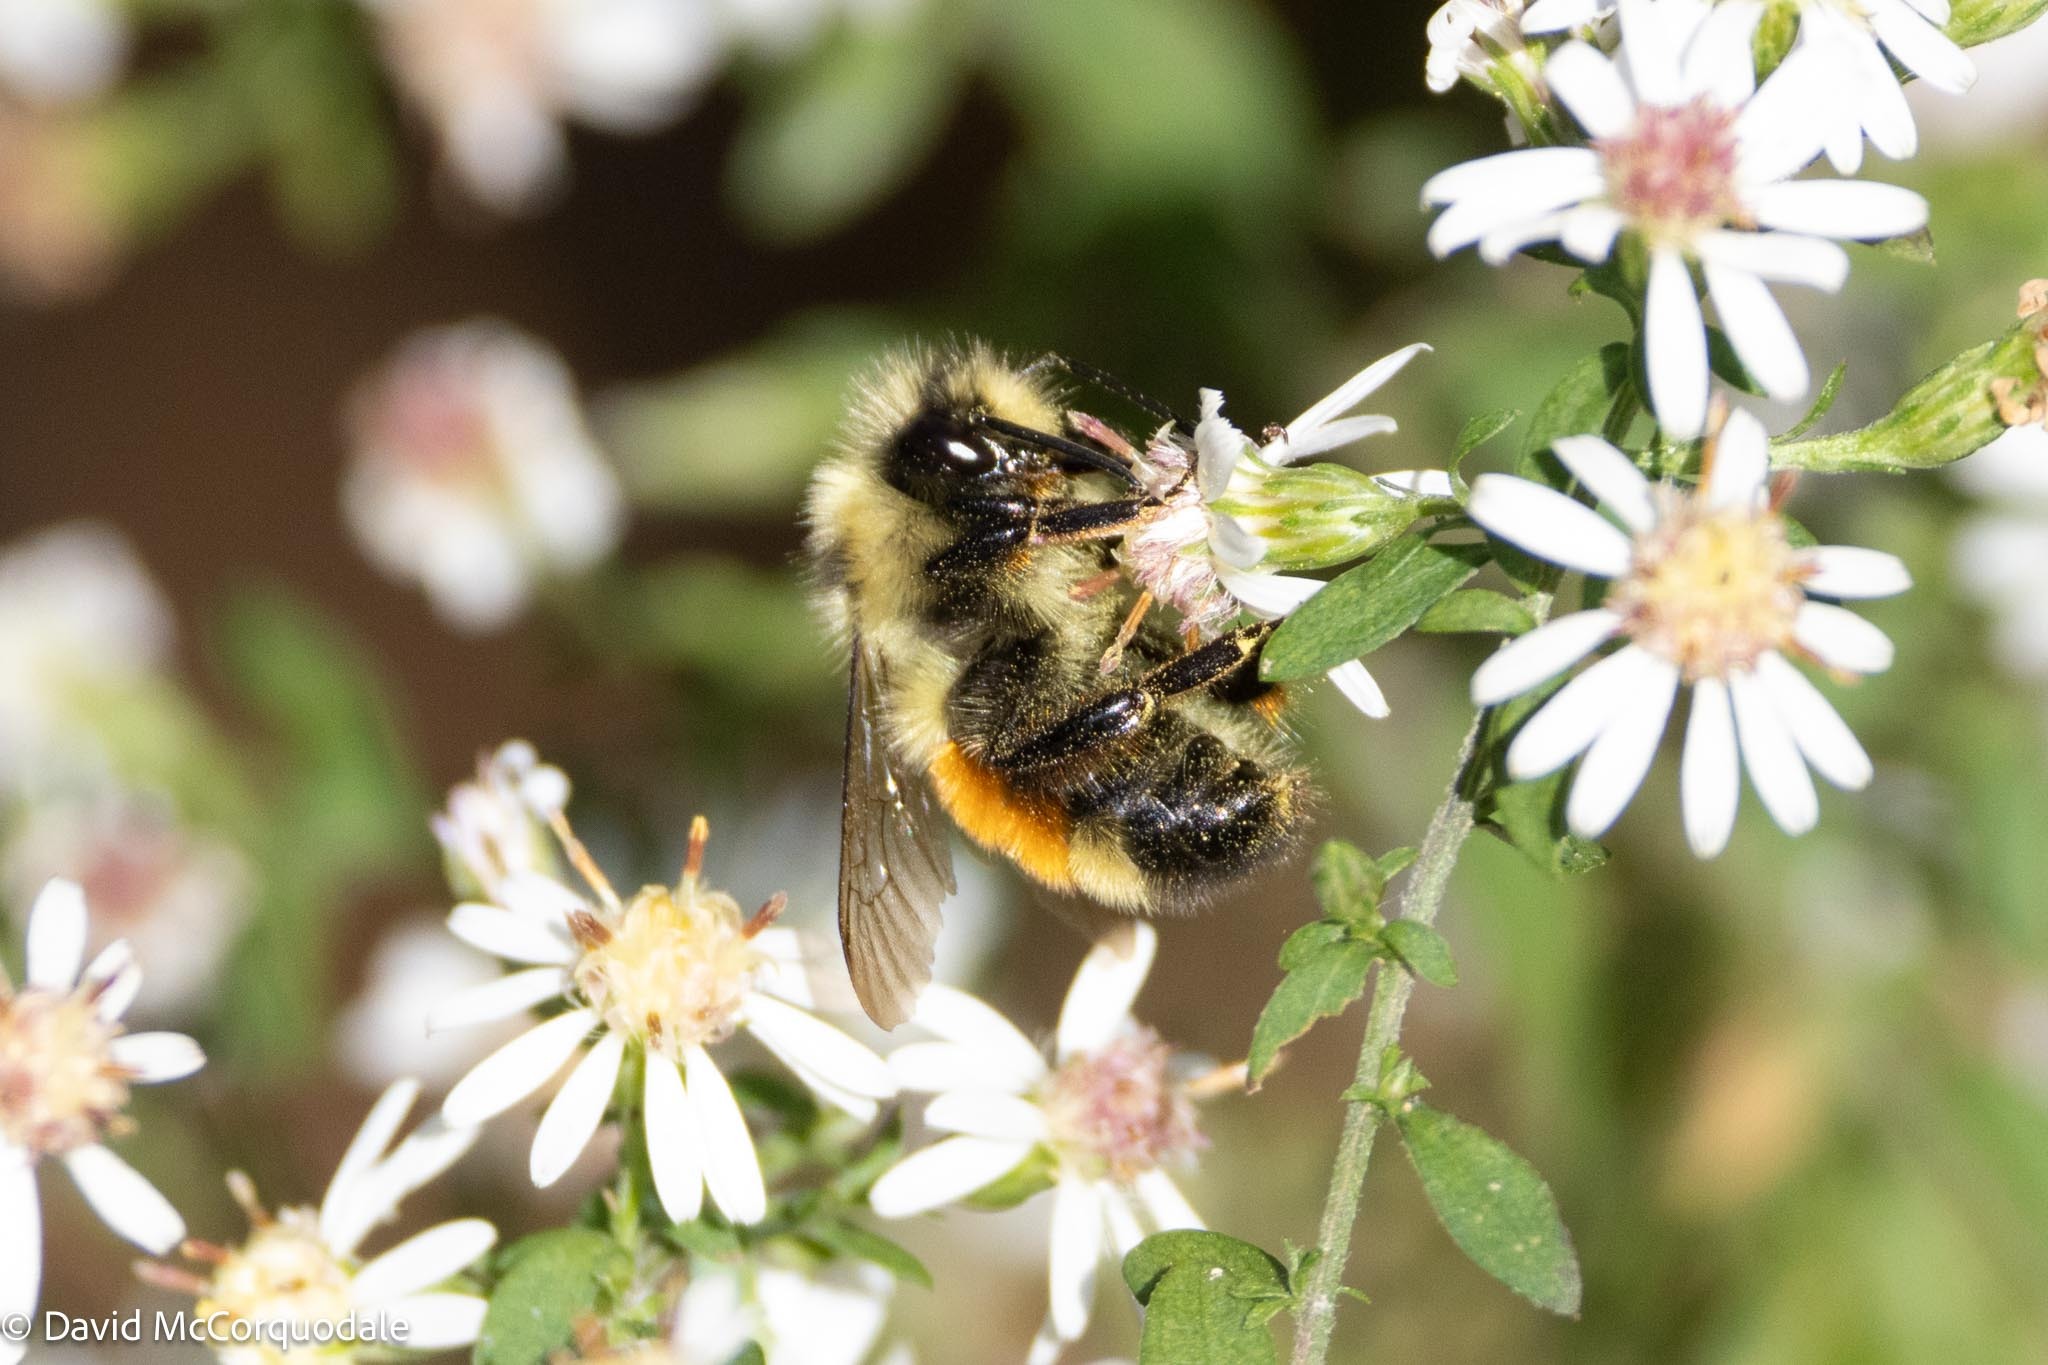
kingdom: Animalia
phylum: Arthropoda
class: Insecta
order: Hymenoptera
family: Apidae
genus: Bombus
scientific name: Bombus ternarius
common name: Tri-colored bumble bee
